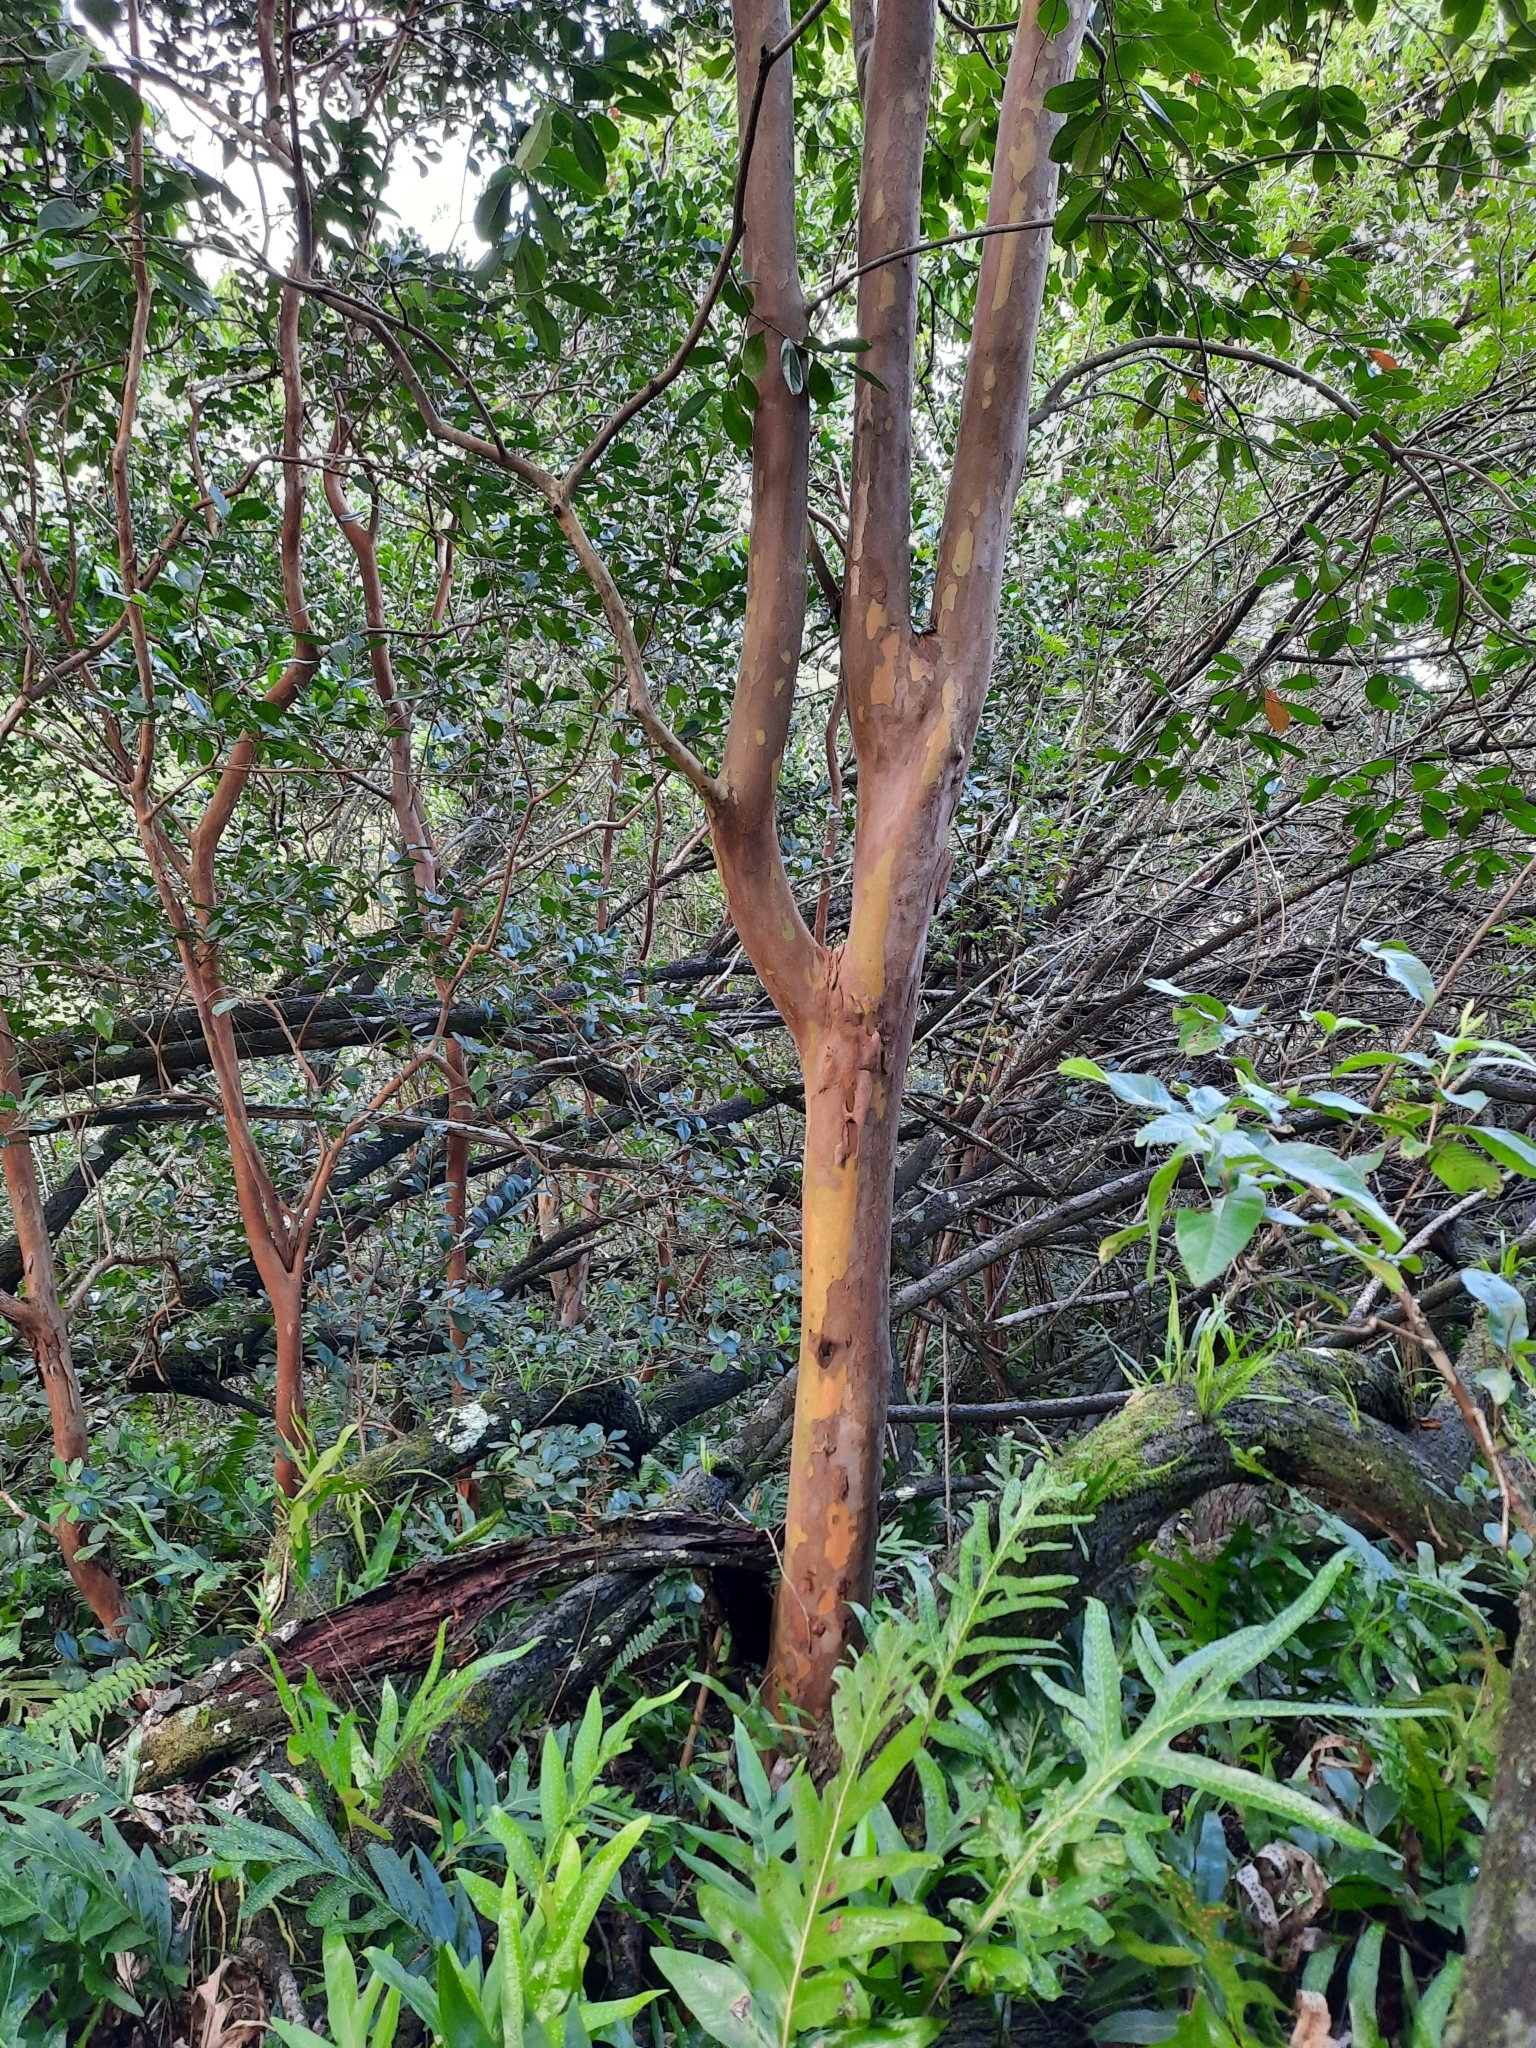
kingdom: Plantae
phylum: Tracheophyta
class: Magnoliopsida
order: Myrtales
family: Myrtaceae
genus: Psidium
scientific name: Psidium guajava
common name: Guava
